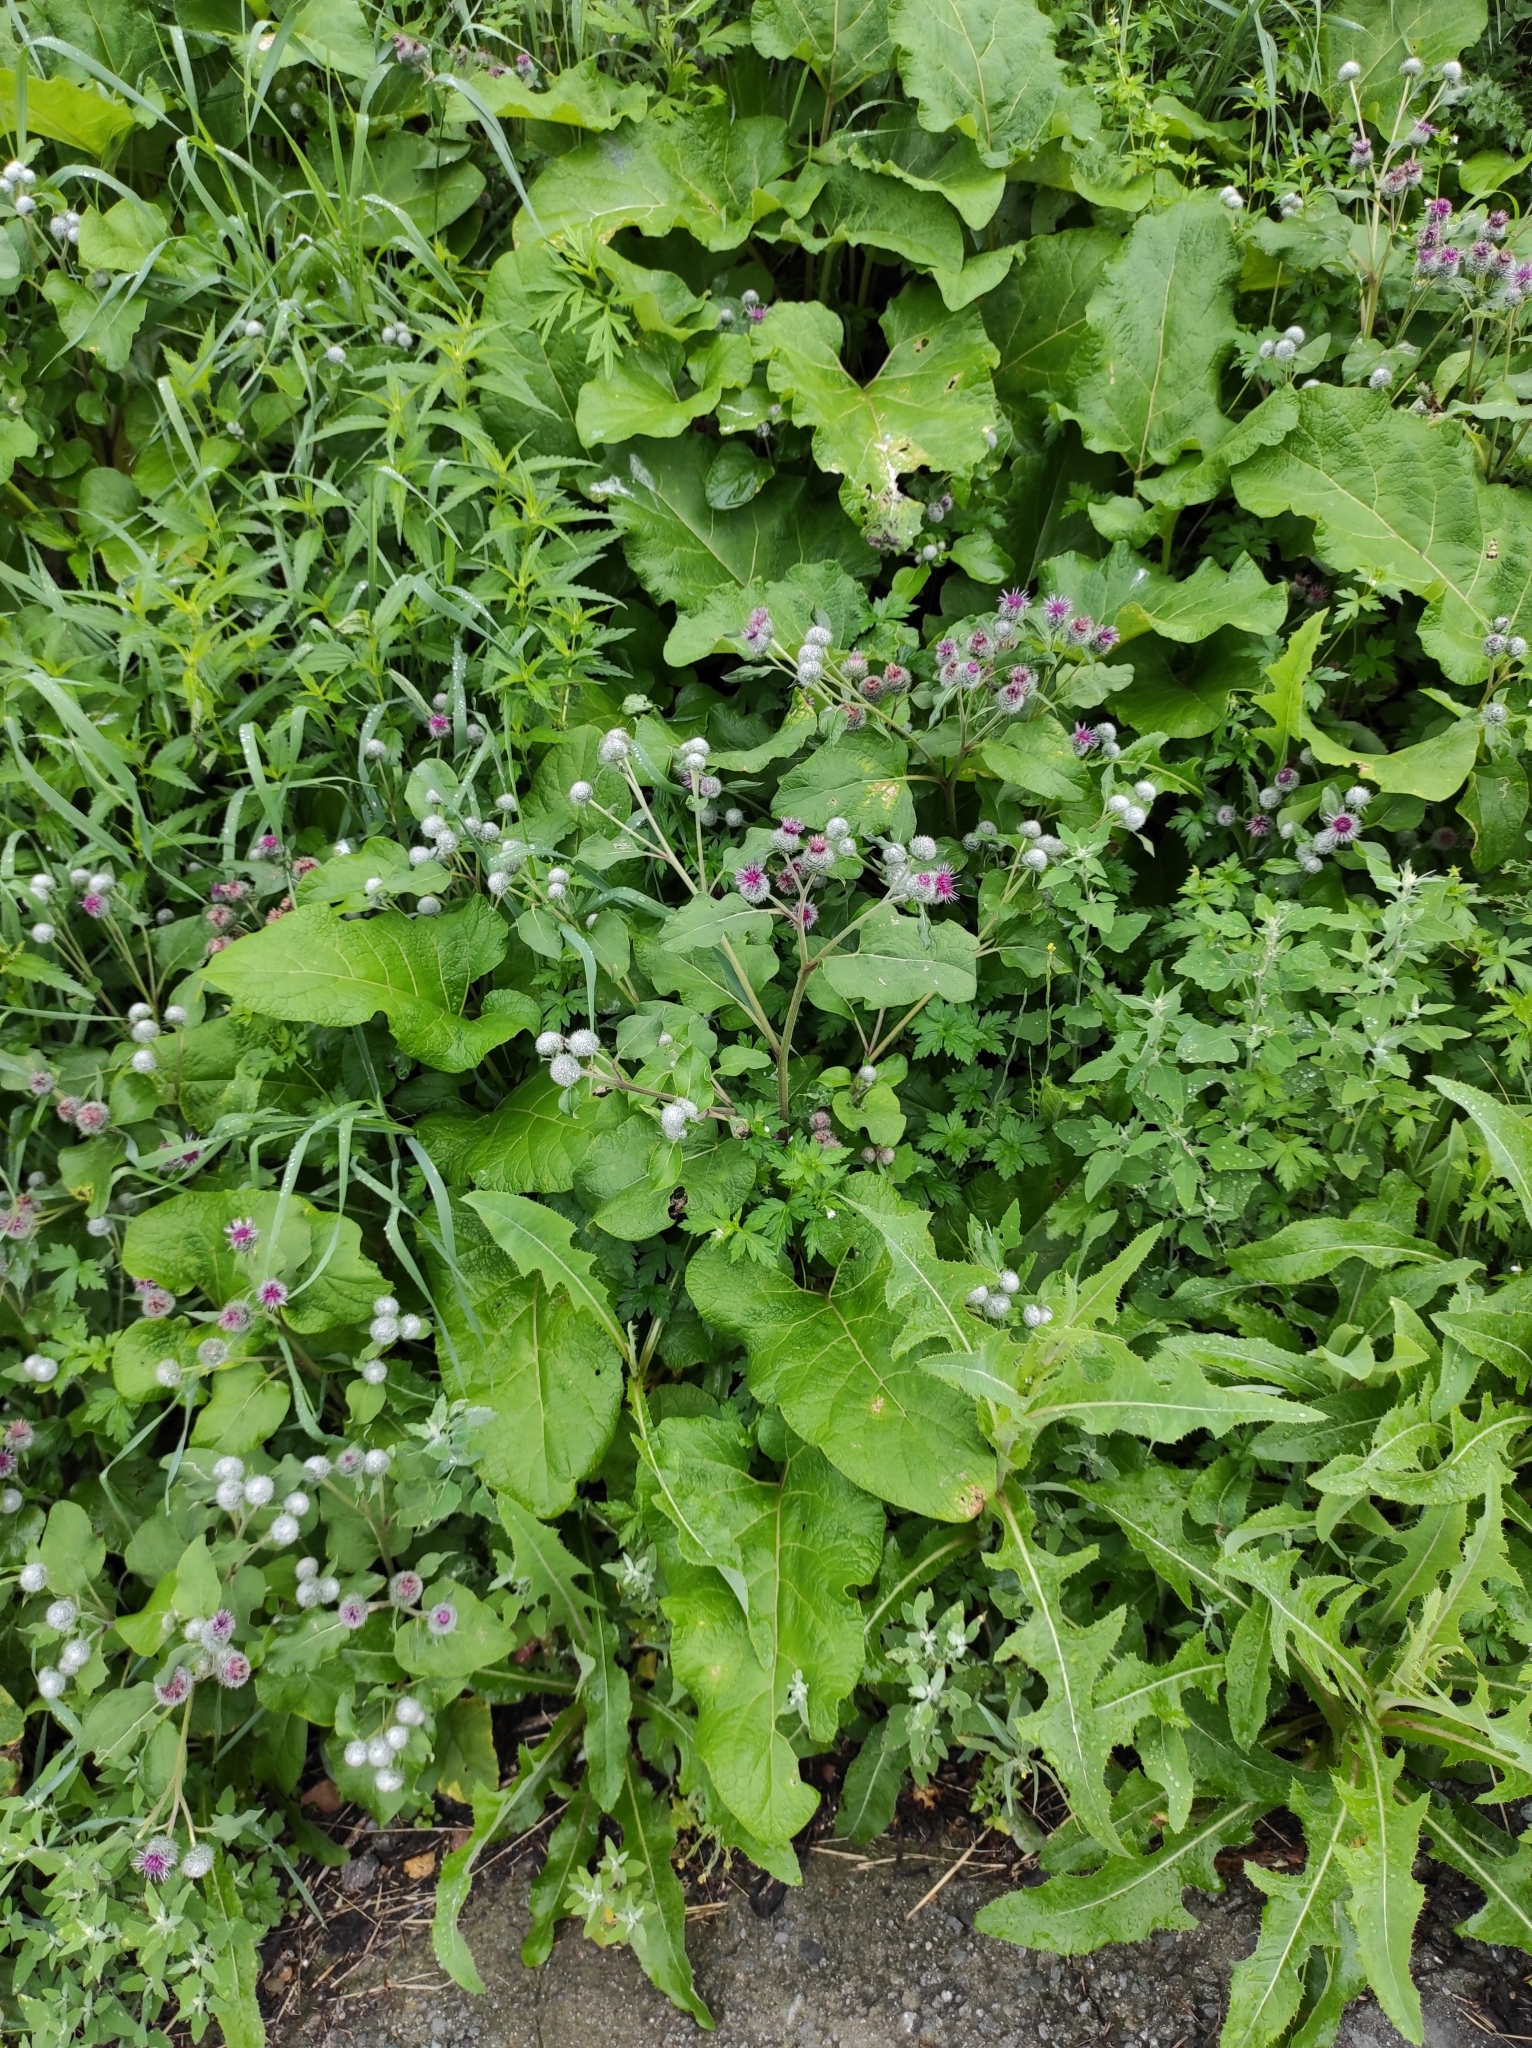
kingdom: Plantae
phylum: Tracheophyta
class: Magnoliopsida
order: Asterales
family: Asteraceae
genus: Arctium
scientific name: Arctium tomentosum
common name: Woolly burdock
